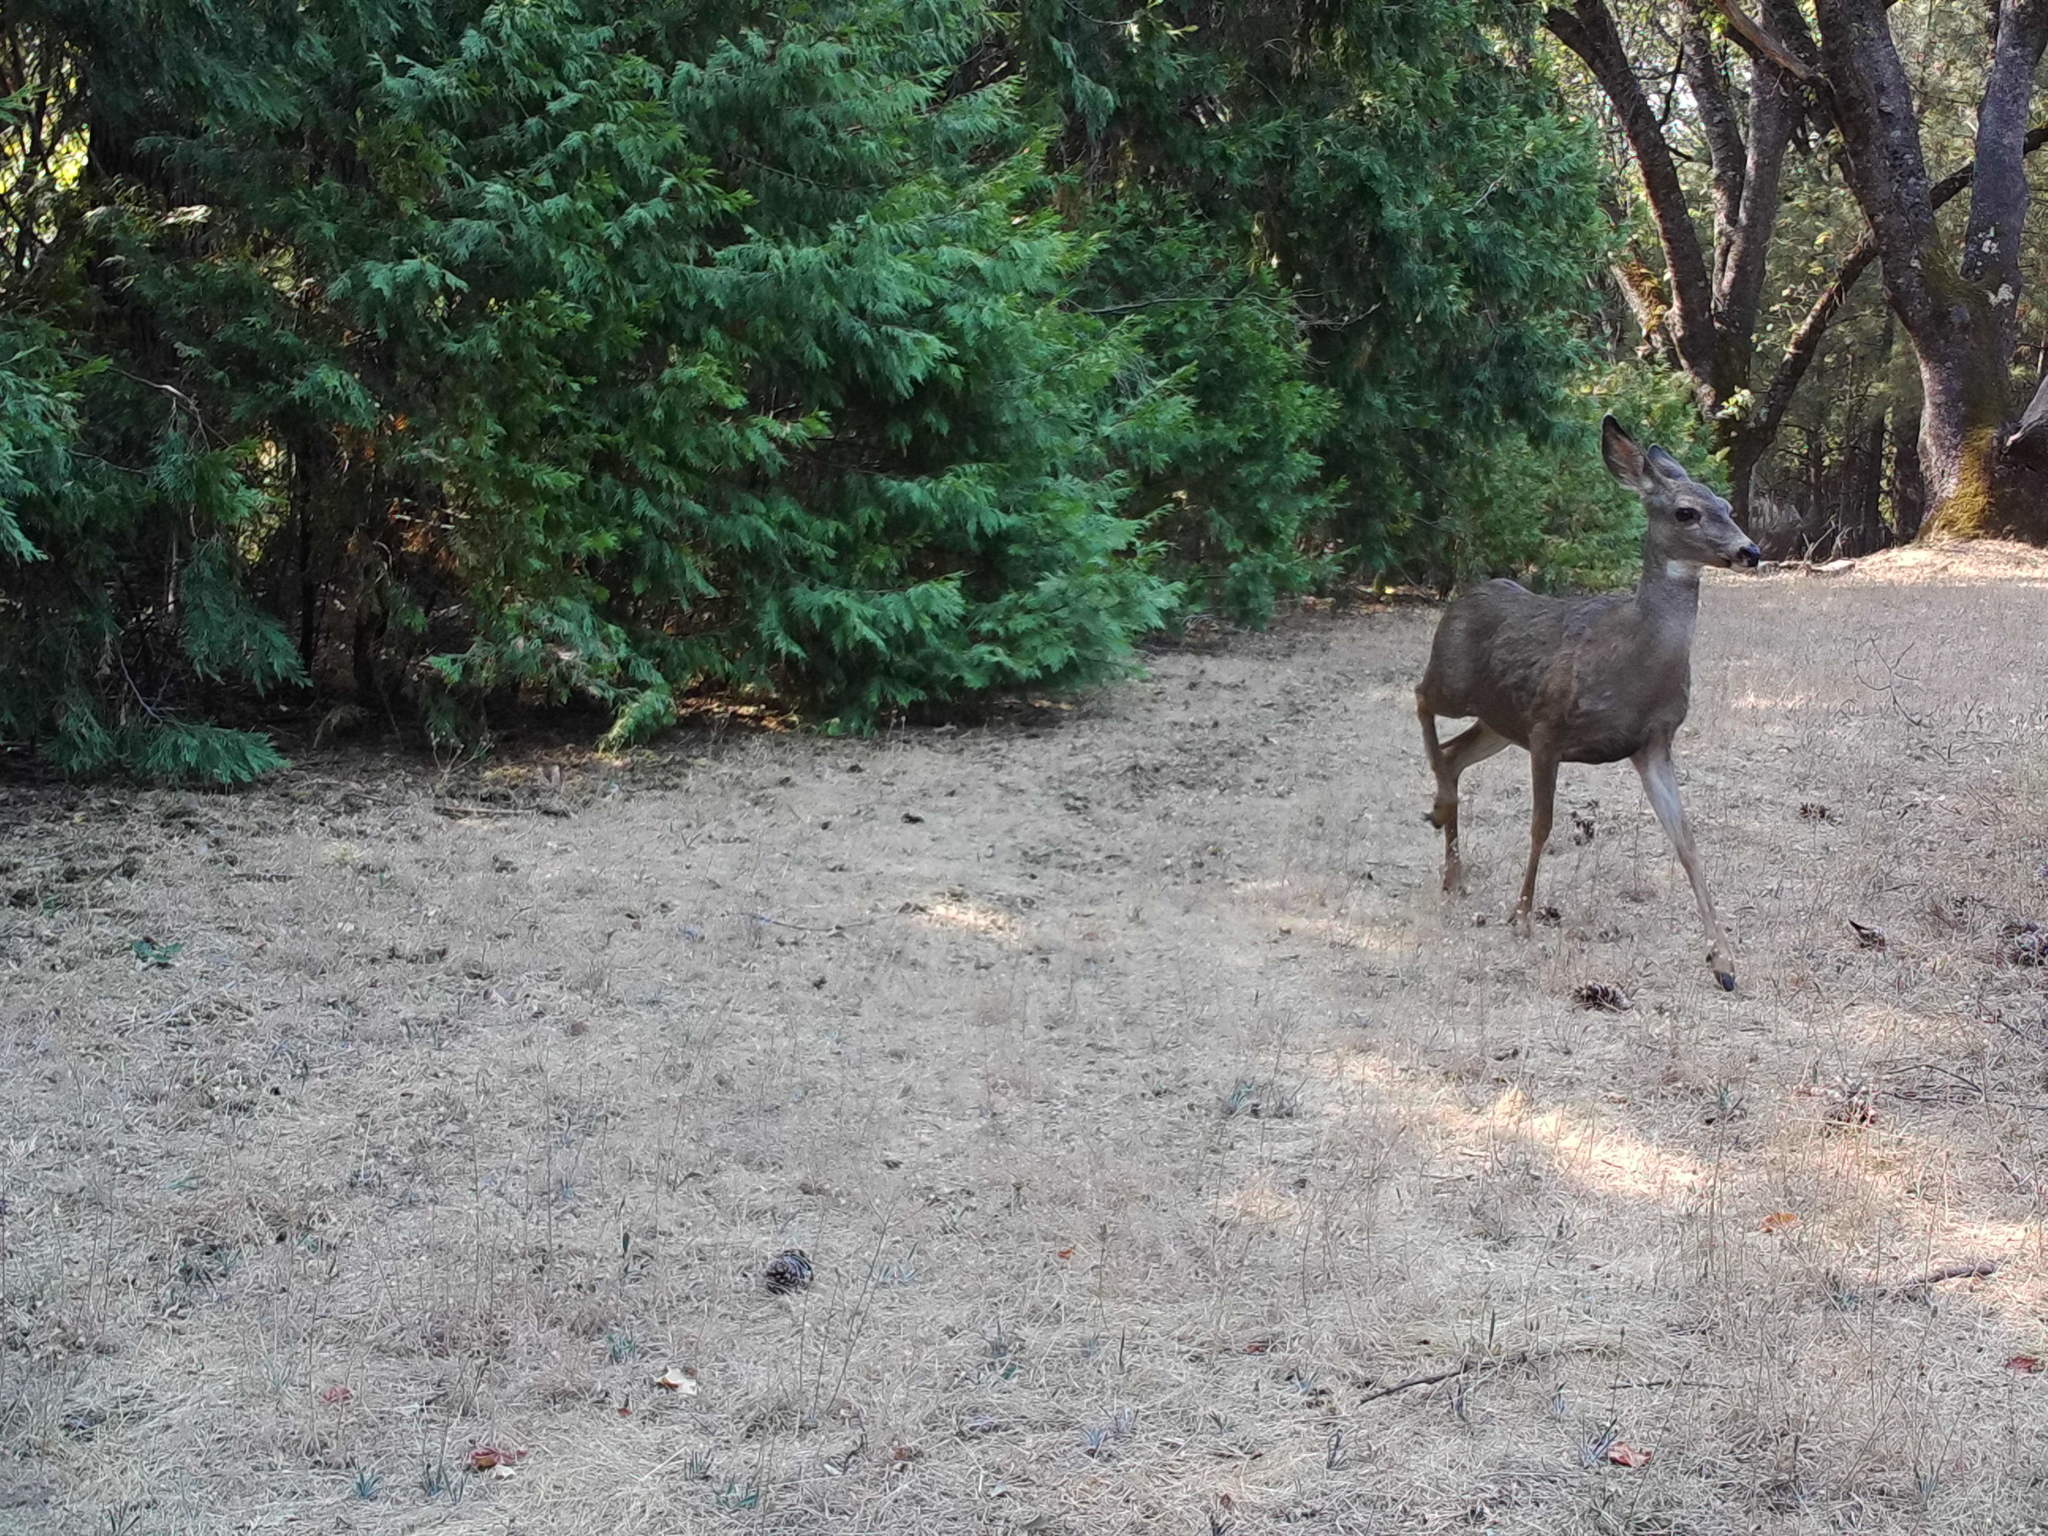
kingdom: Animalia
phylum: Chordata
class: Mammalia
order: Artiodactyla
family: Cervidae
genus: Odocoileus
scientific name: Odocoileus hemionus
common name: Mule deer
